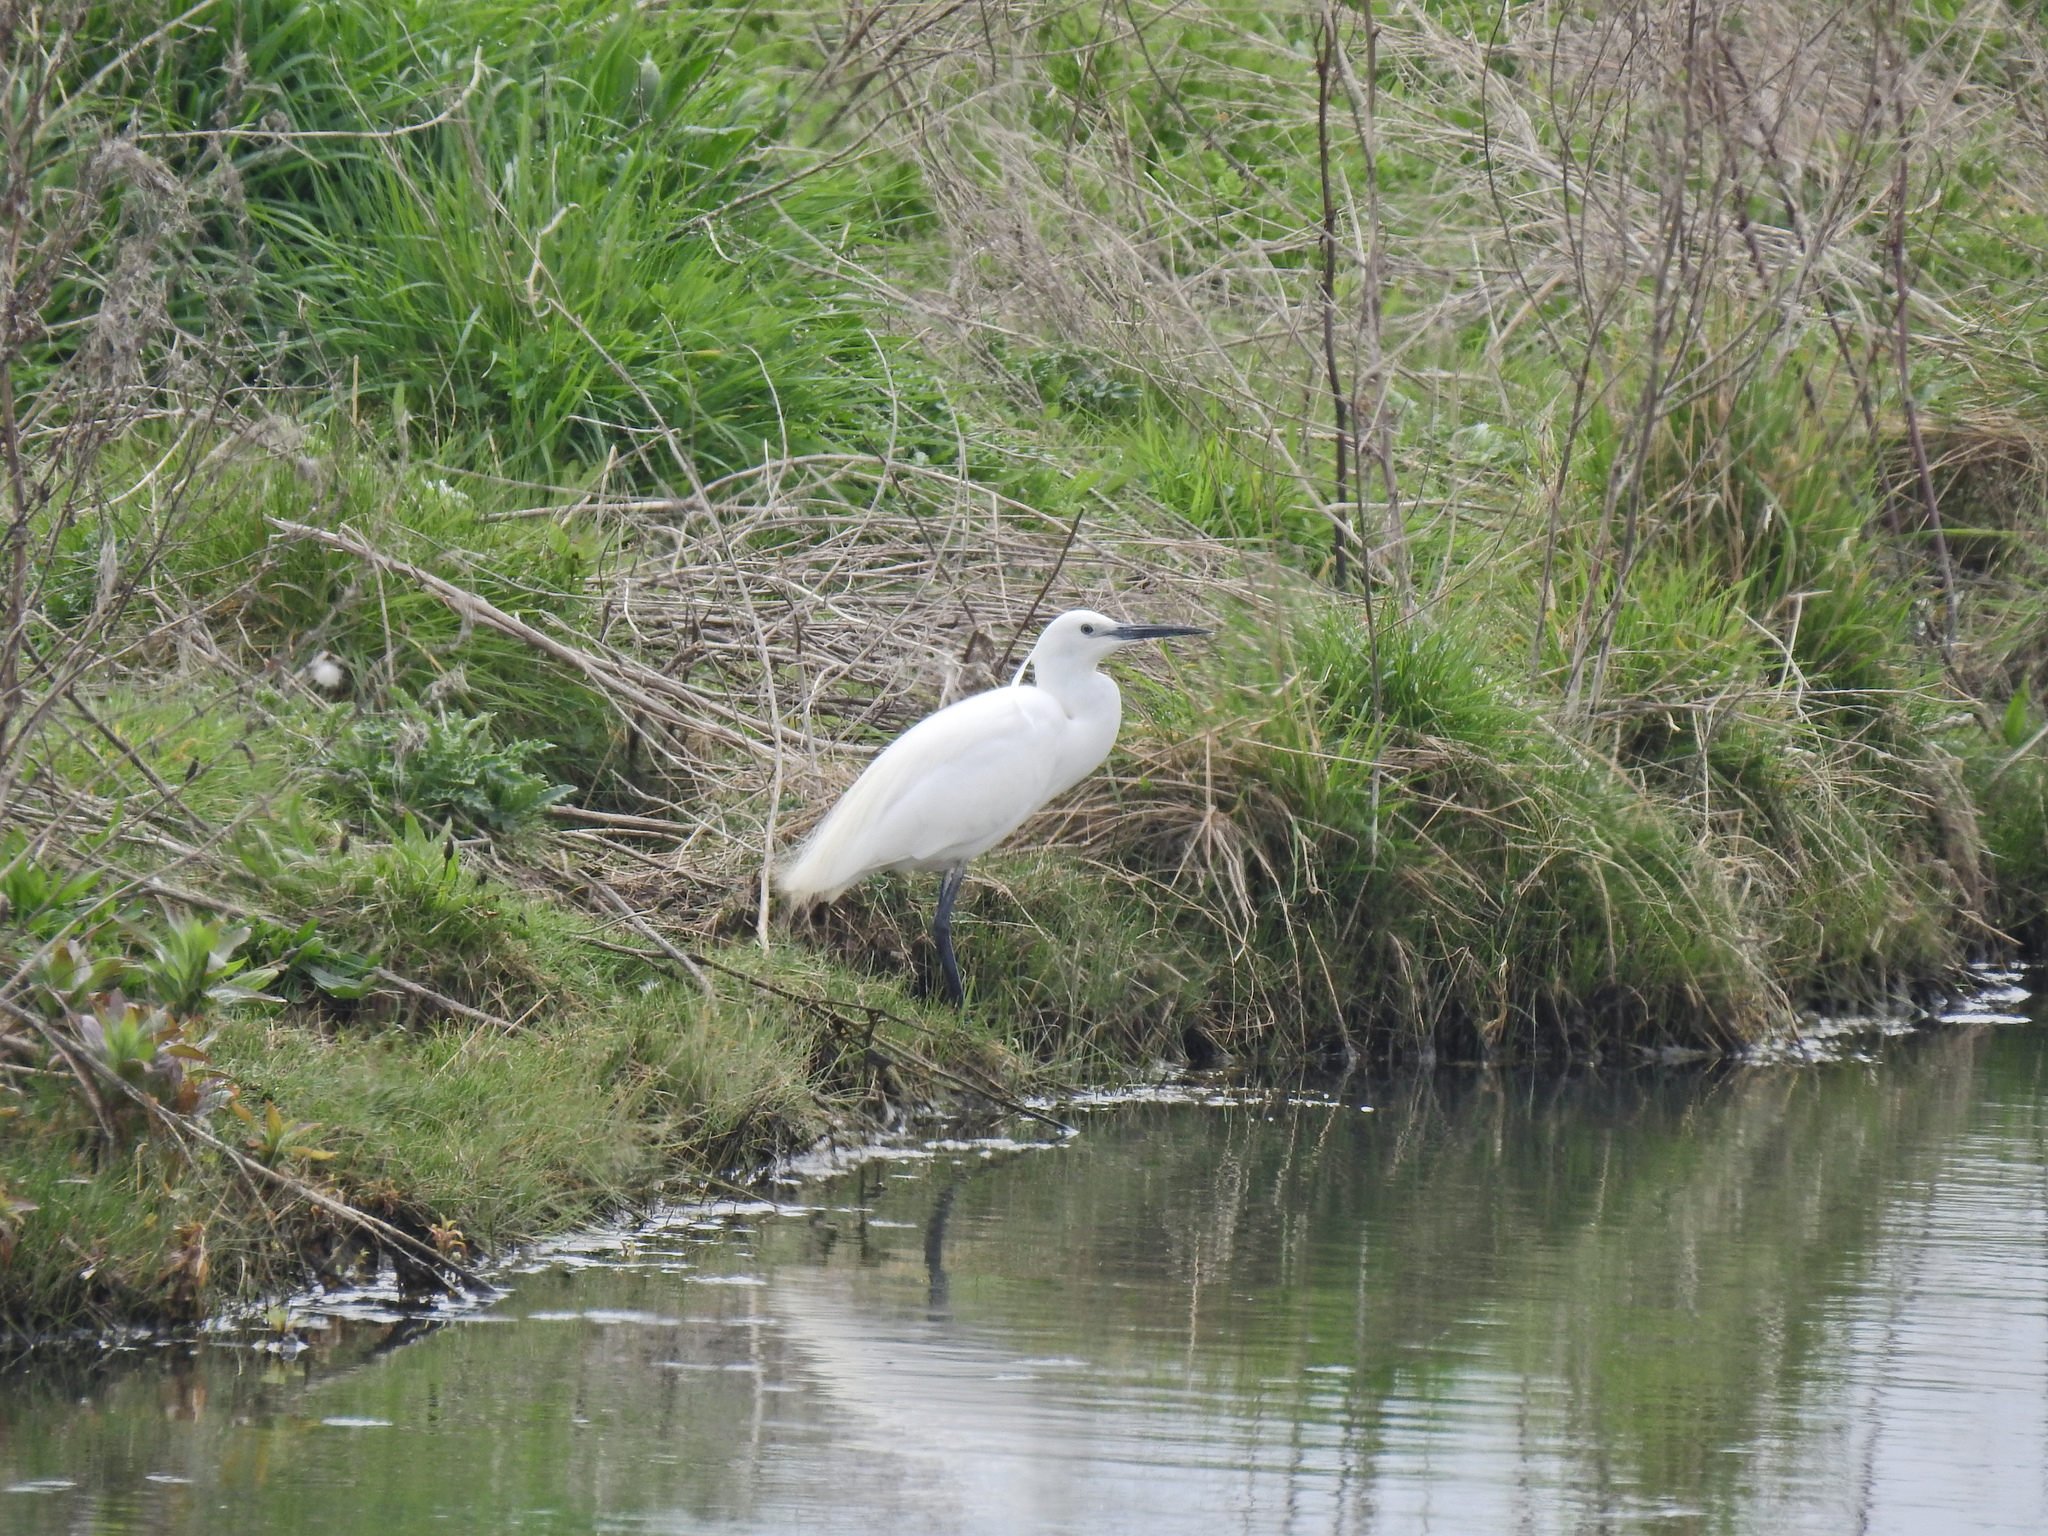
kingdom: Animalia
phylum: Chordata
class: Aves
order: Pelecaniformes
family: Ardeidae
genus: Egretta
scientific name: Egretta garzetta
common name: Little egret
